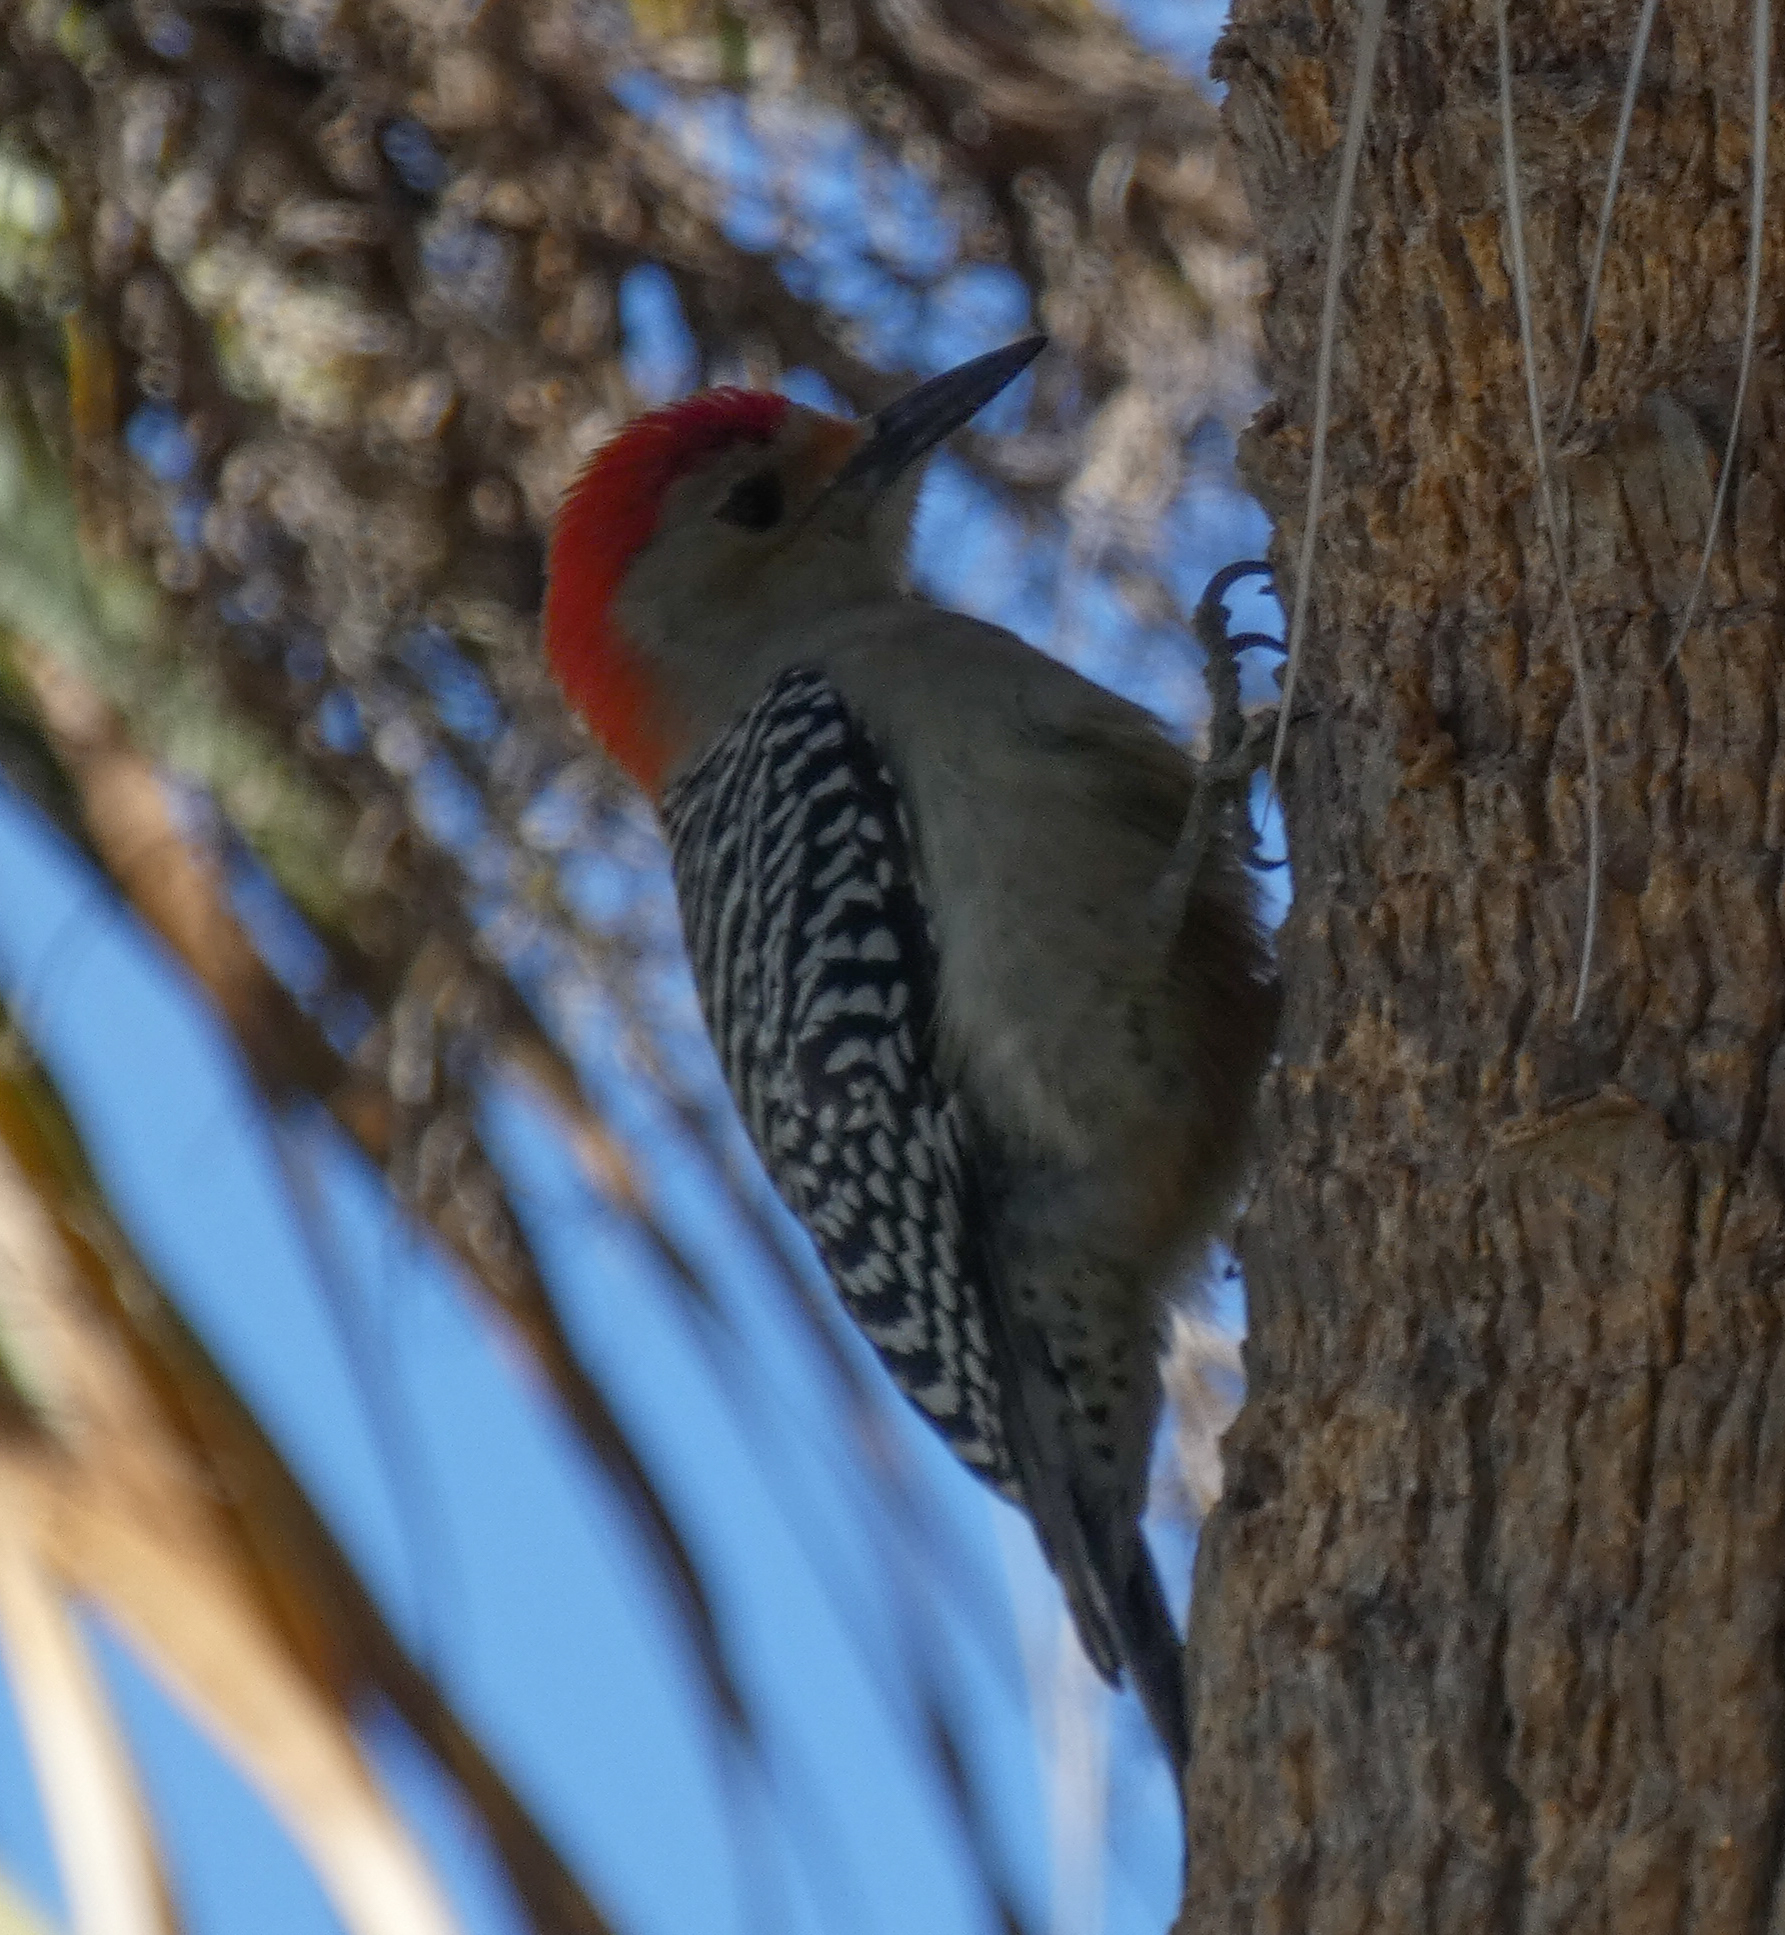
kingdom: Animalia
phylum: Chordata
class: Aves
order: Piciformes
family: Picidae
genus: Melanerpes
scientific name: Melanerpes carolinus
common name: Red-bellied woodpecker
